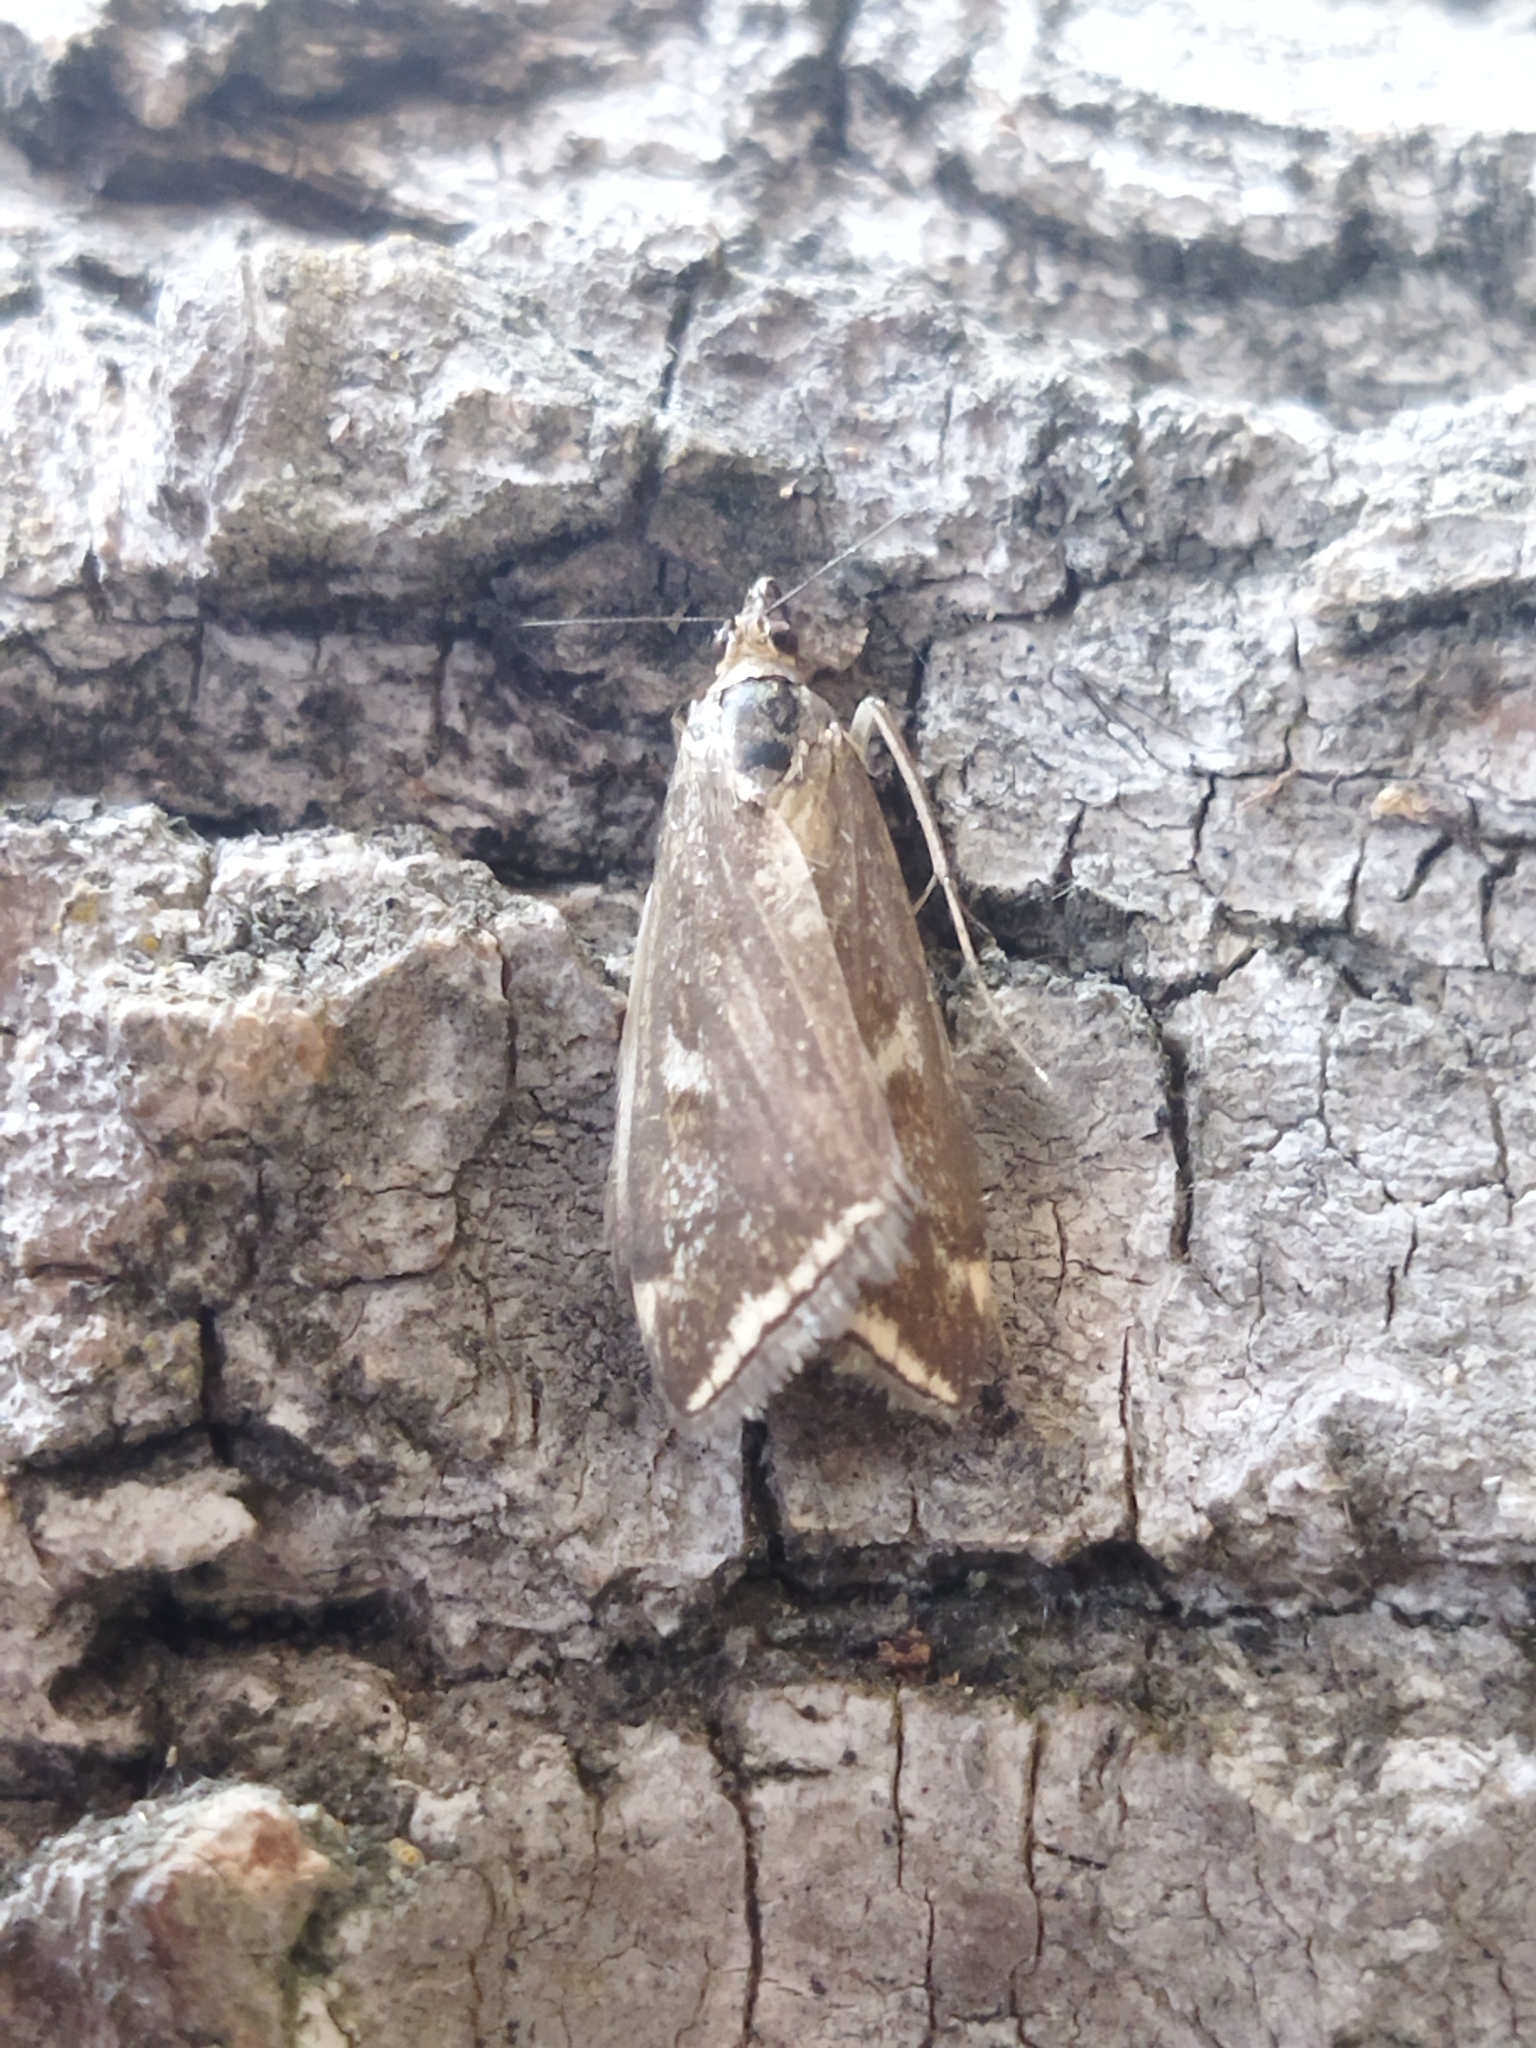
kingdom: Animalia
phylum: Arthropoda
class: Insecta
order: Lepidoptera
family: Crambidae
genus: Loxostege
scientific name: Loxostege sticticalis
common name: Crambid moth
